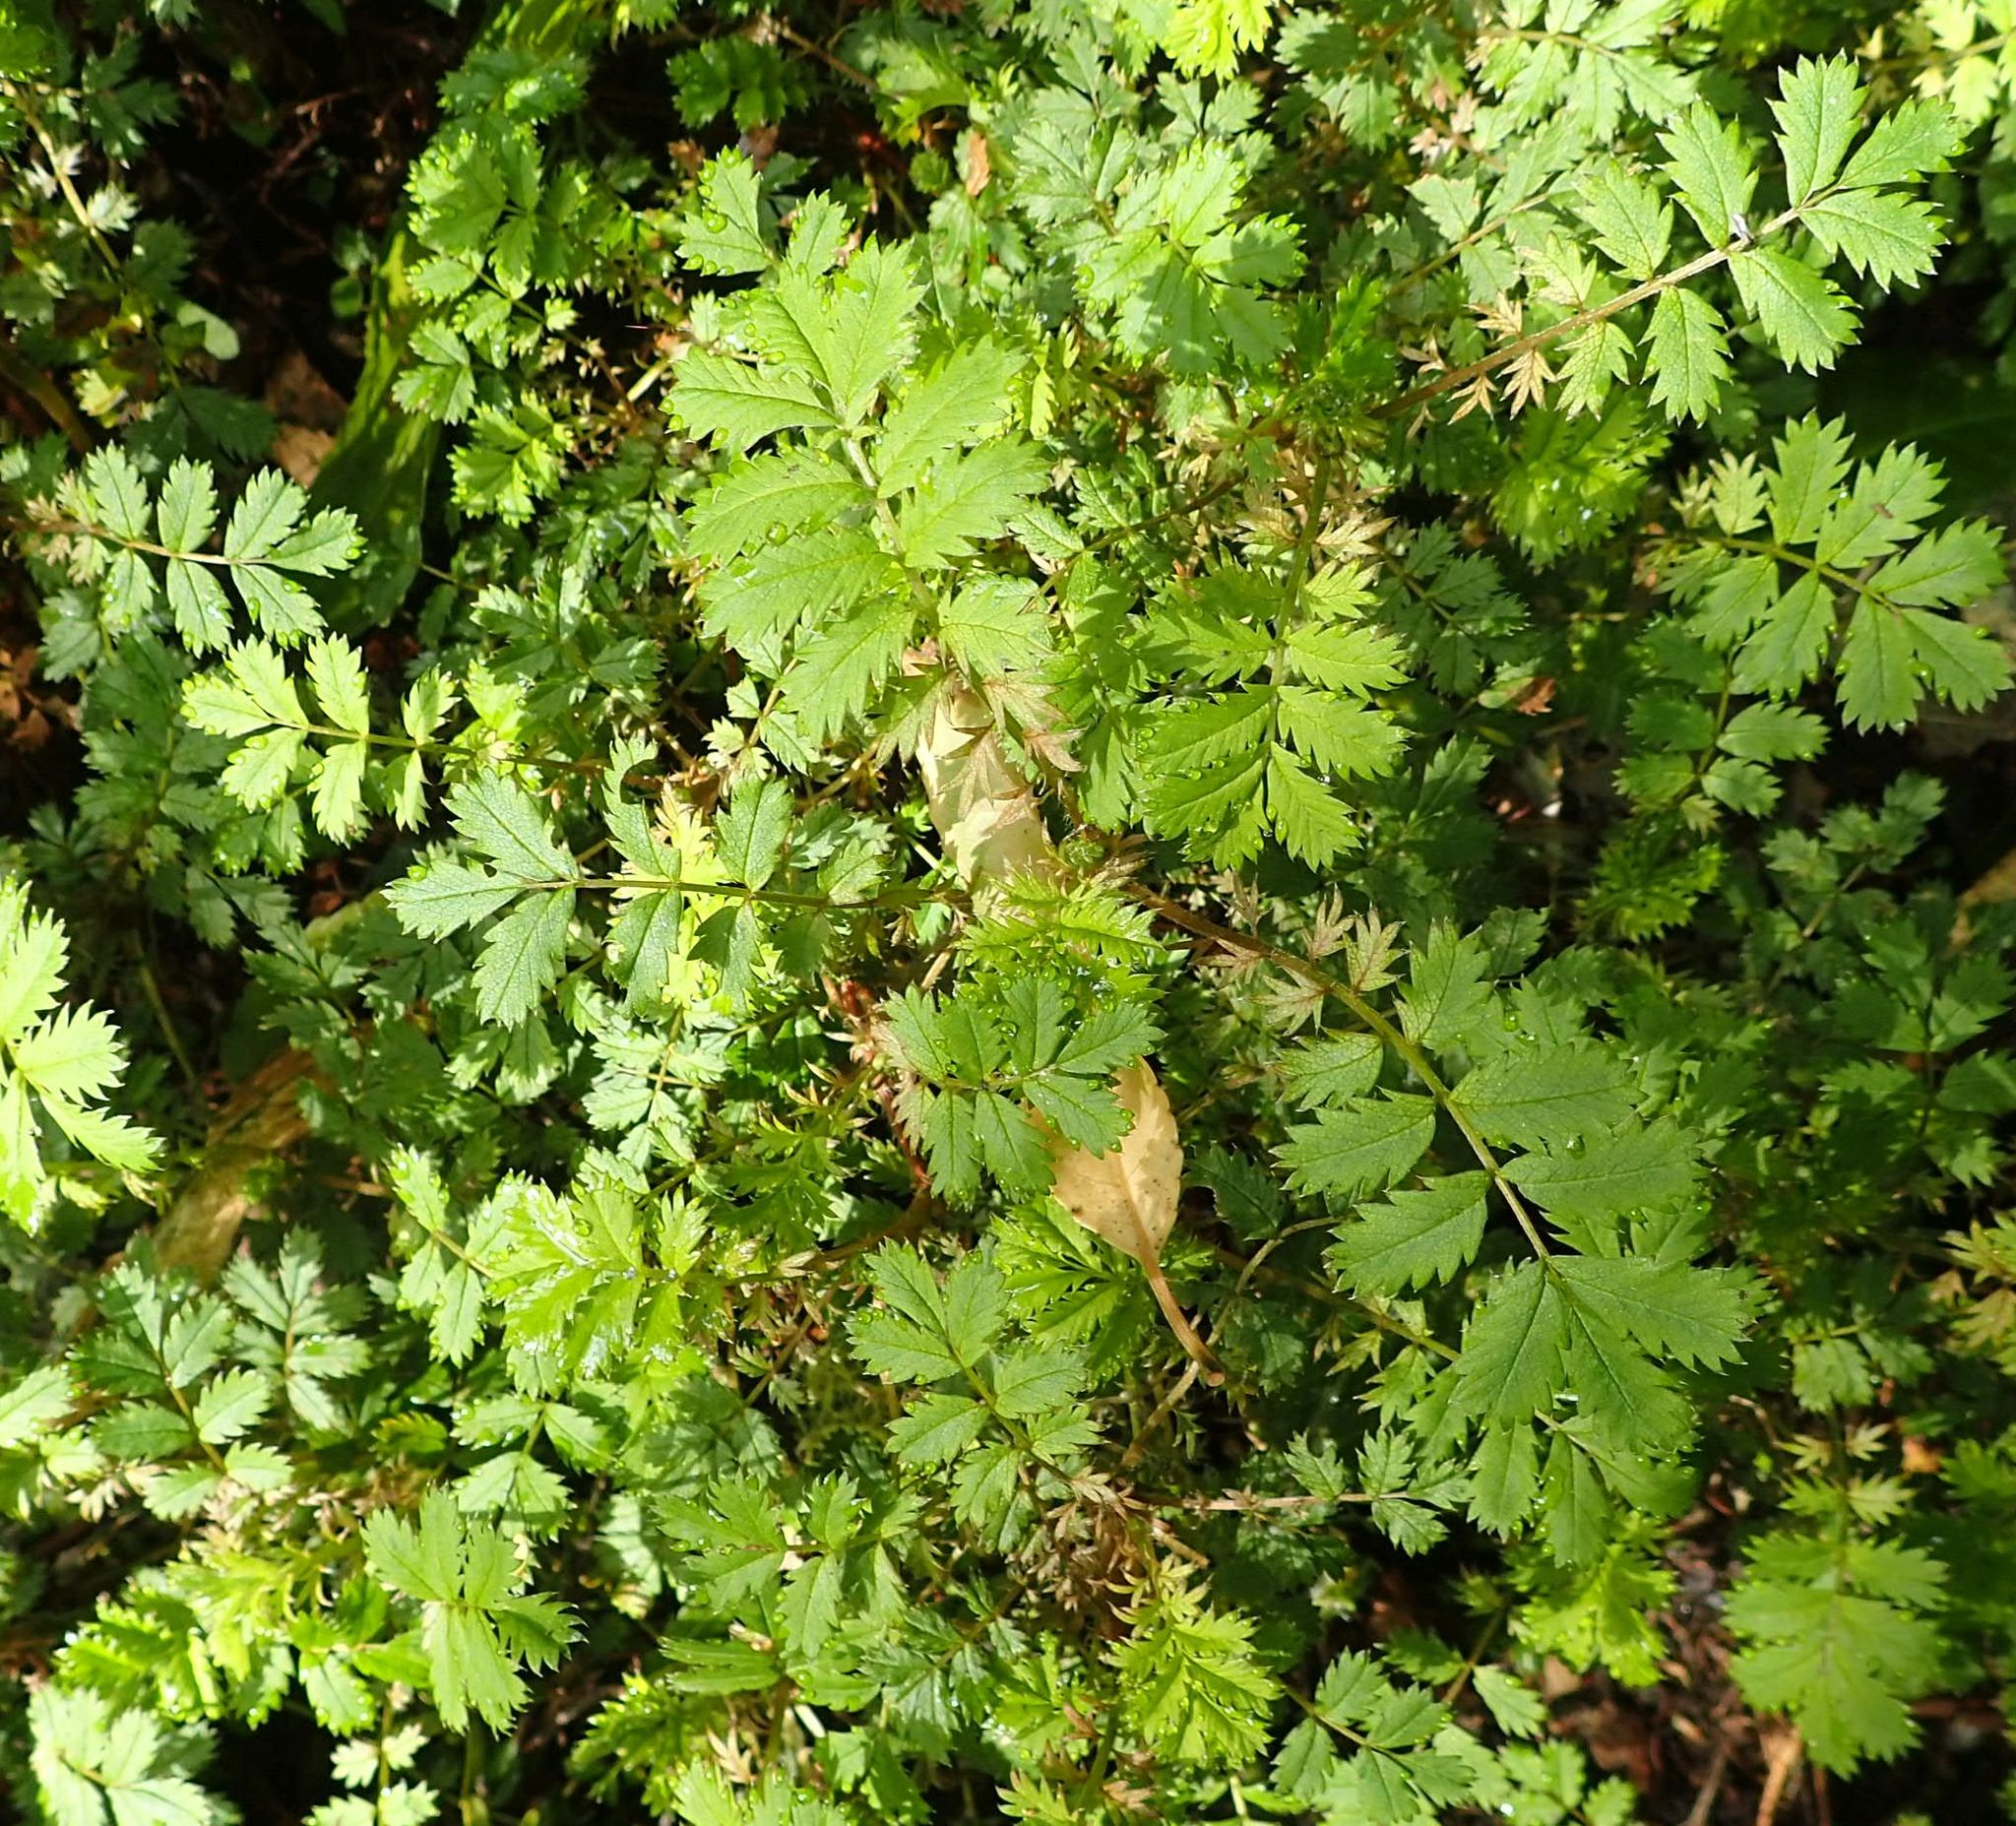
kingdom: Plantae
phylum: Tracheophyta
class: Magnoliopsida
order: Rosales
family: Rosaceae
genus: Acaena
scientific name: Acaena anserinifolia
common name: Bronze pirri-pirri-bur
